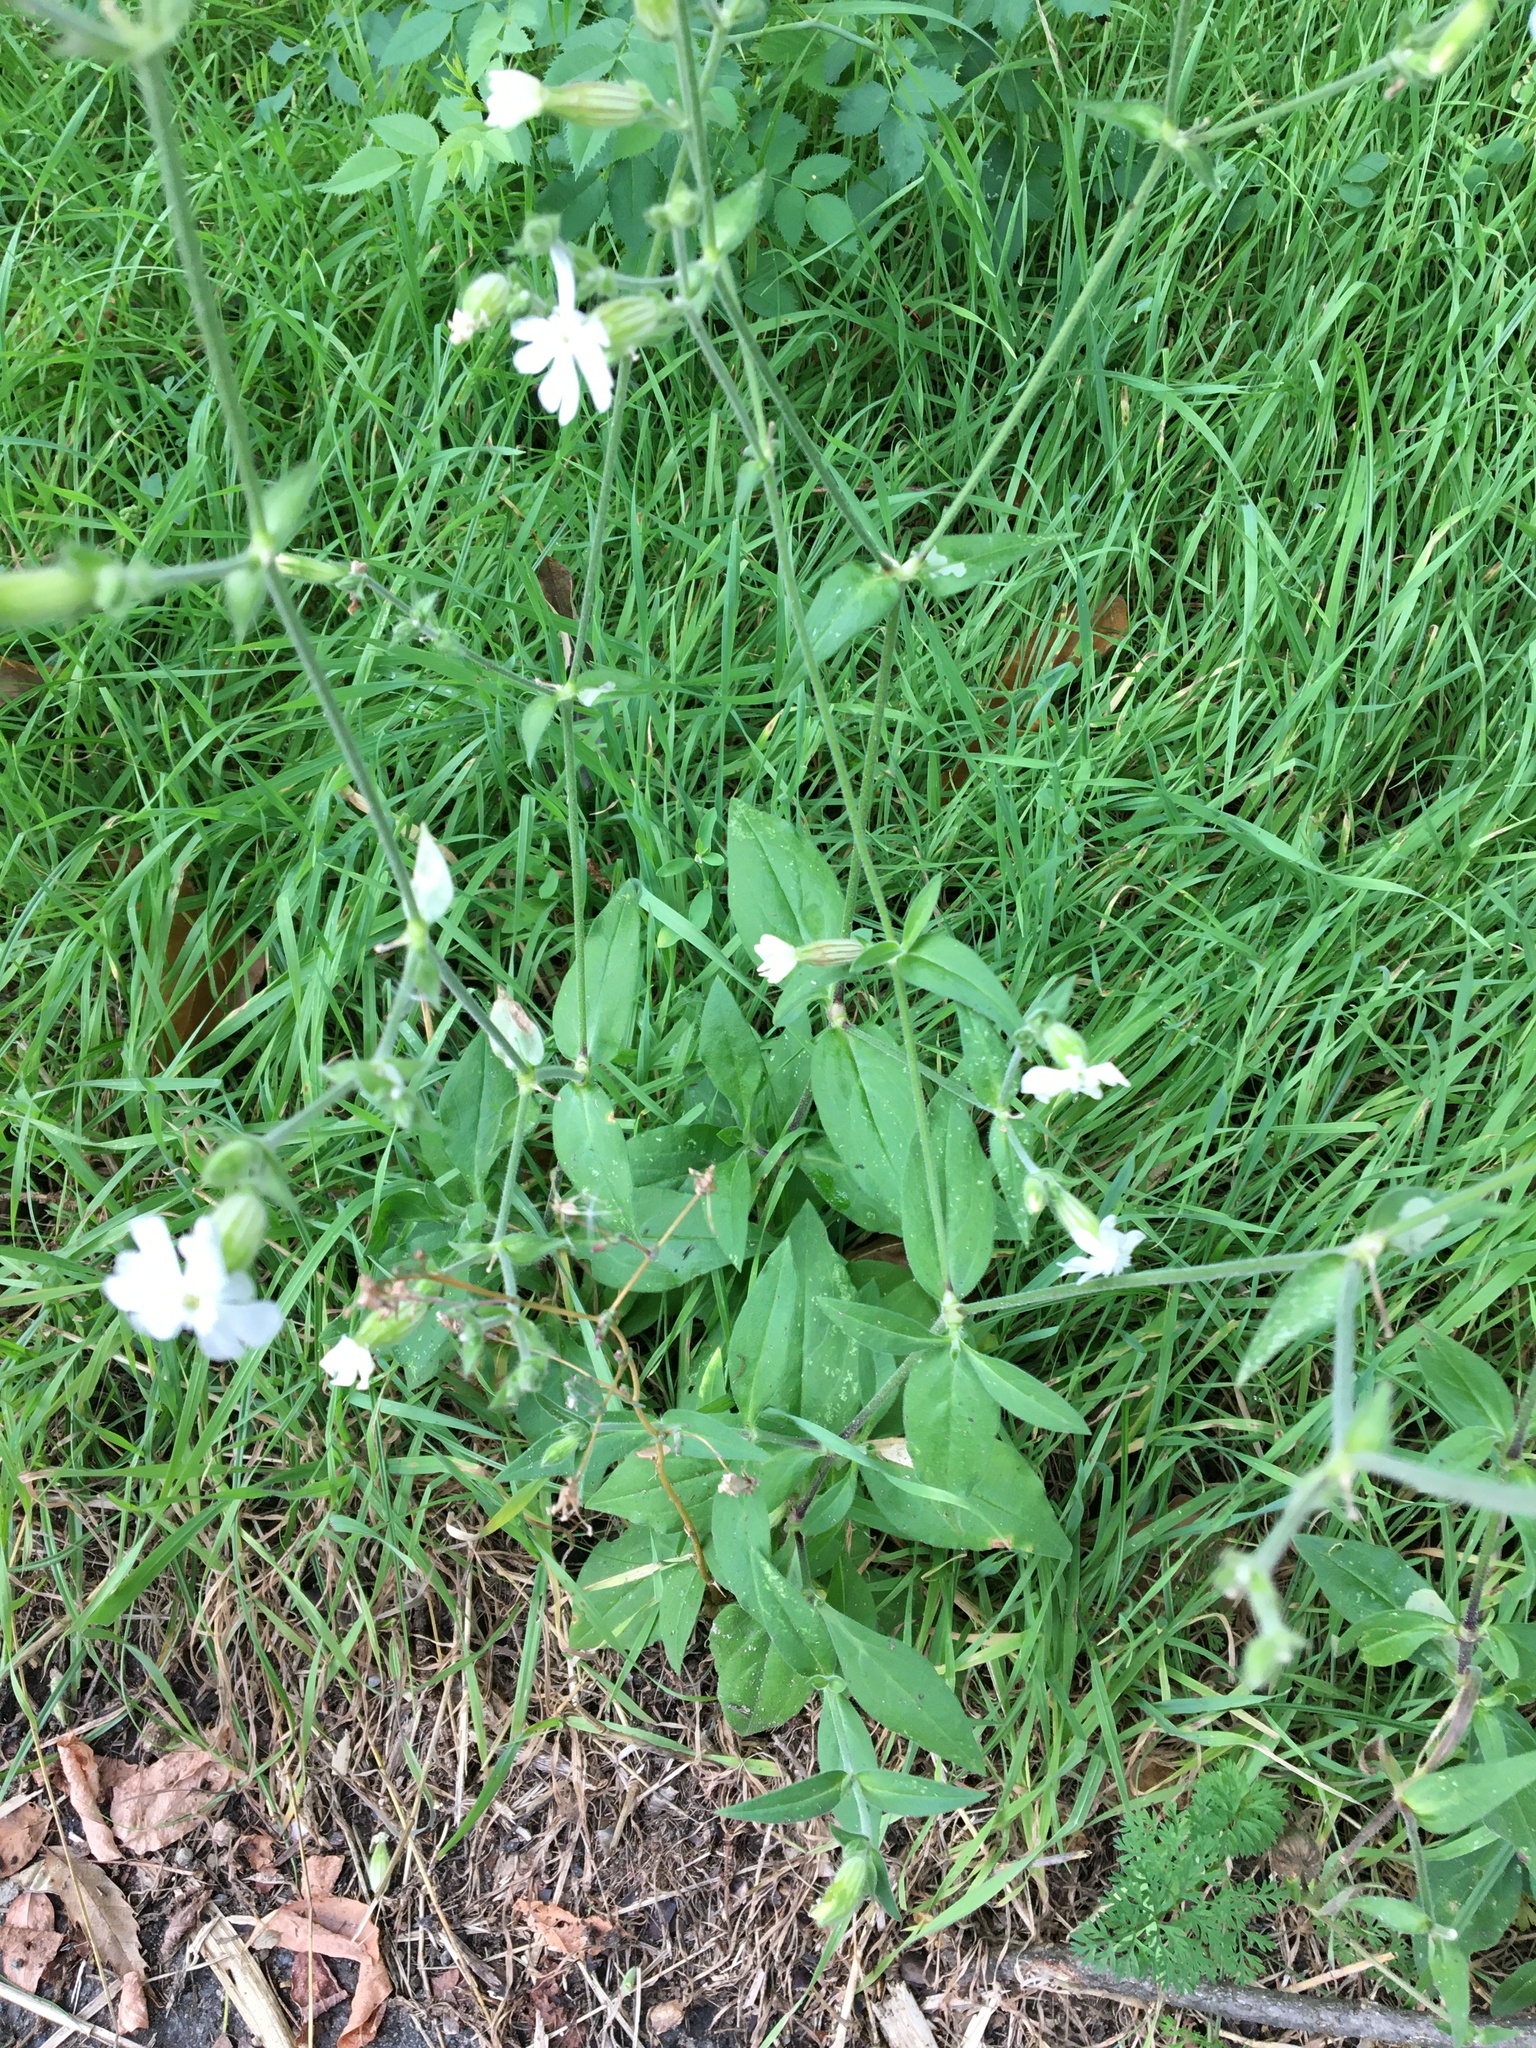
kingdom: Plantae
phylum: Tracheophyta
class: Magnoliopsida
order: Caryophyllales
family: Caryophyllaceae
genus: Silene
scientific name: Silene latifolia
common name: White campion
